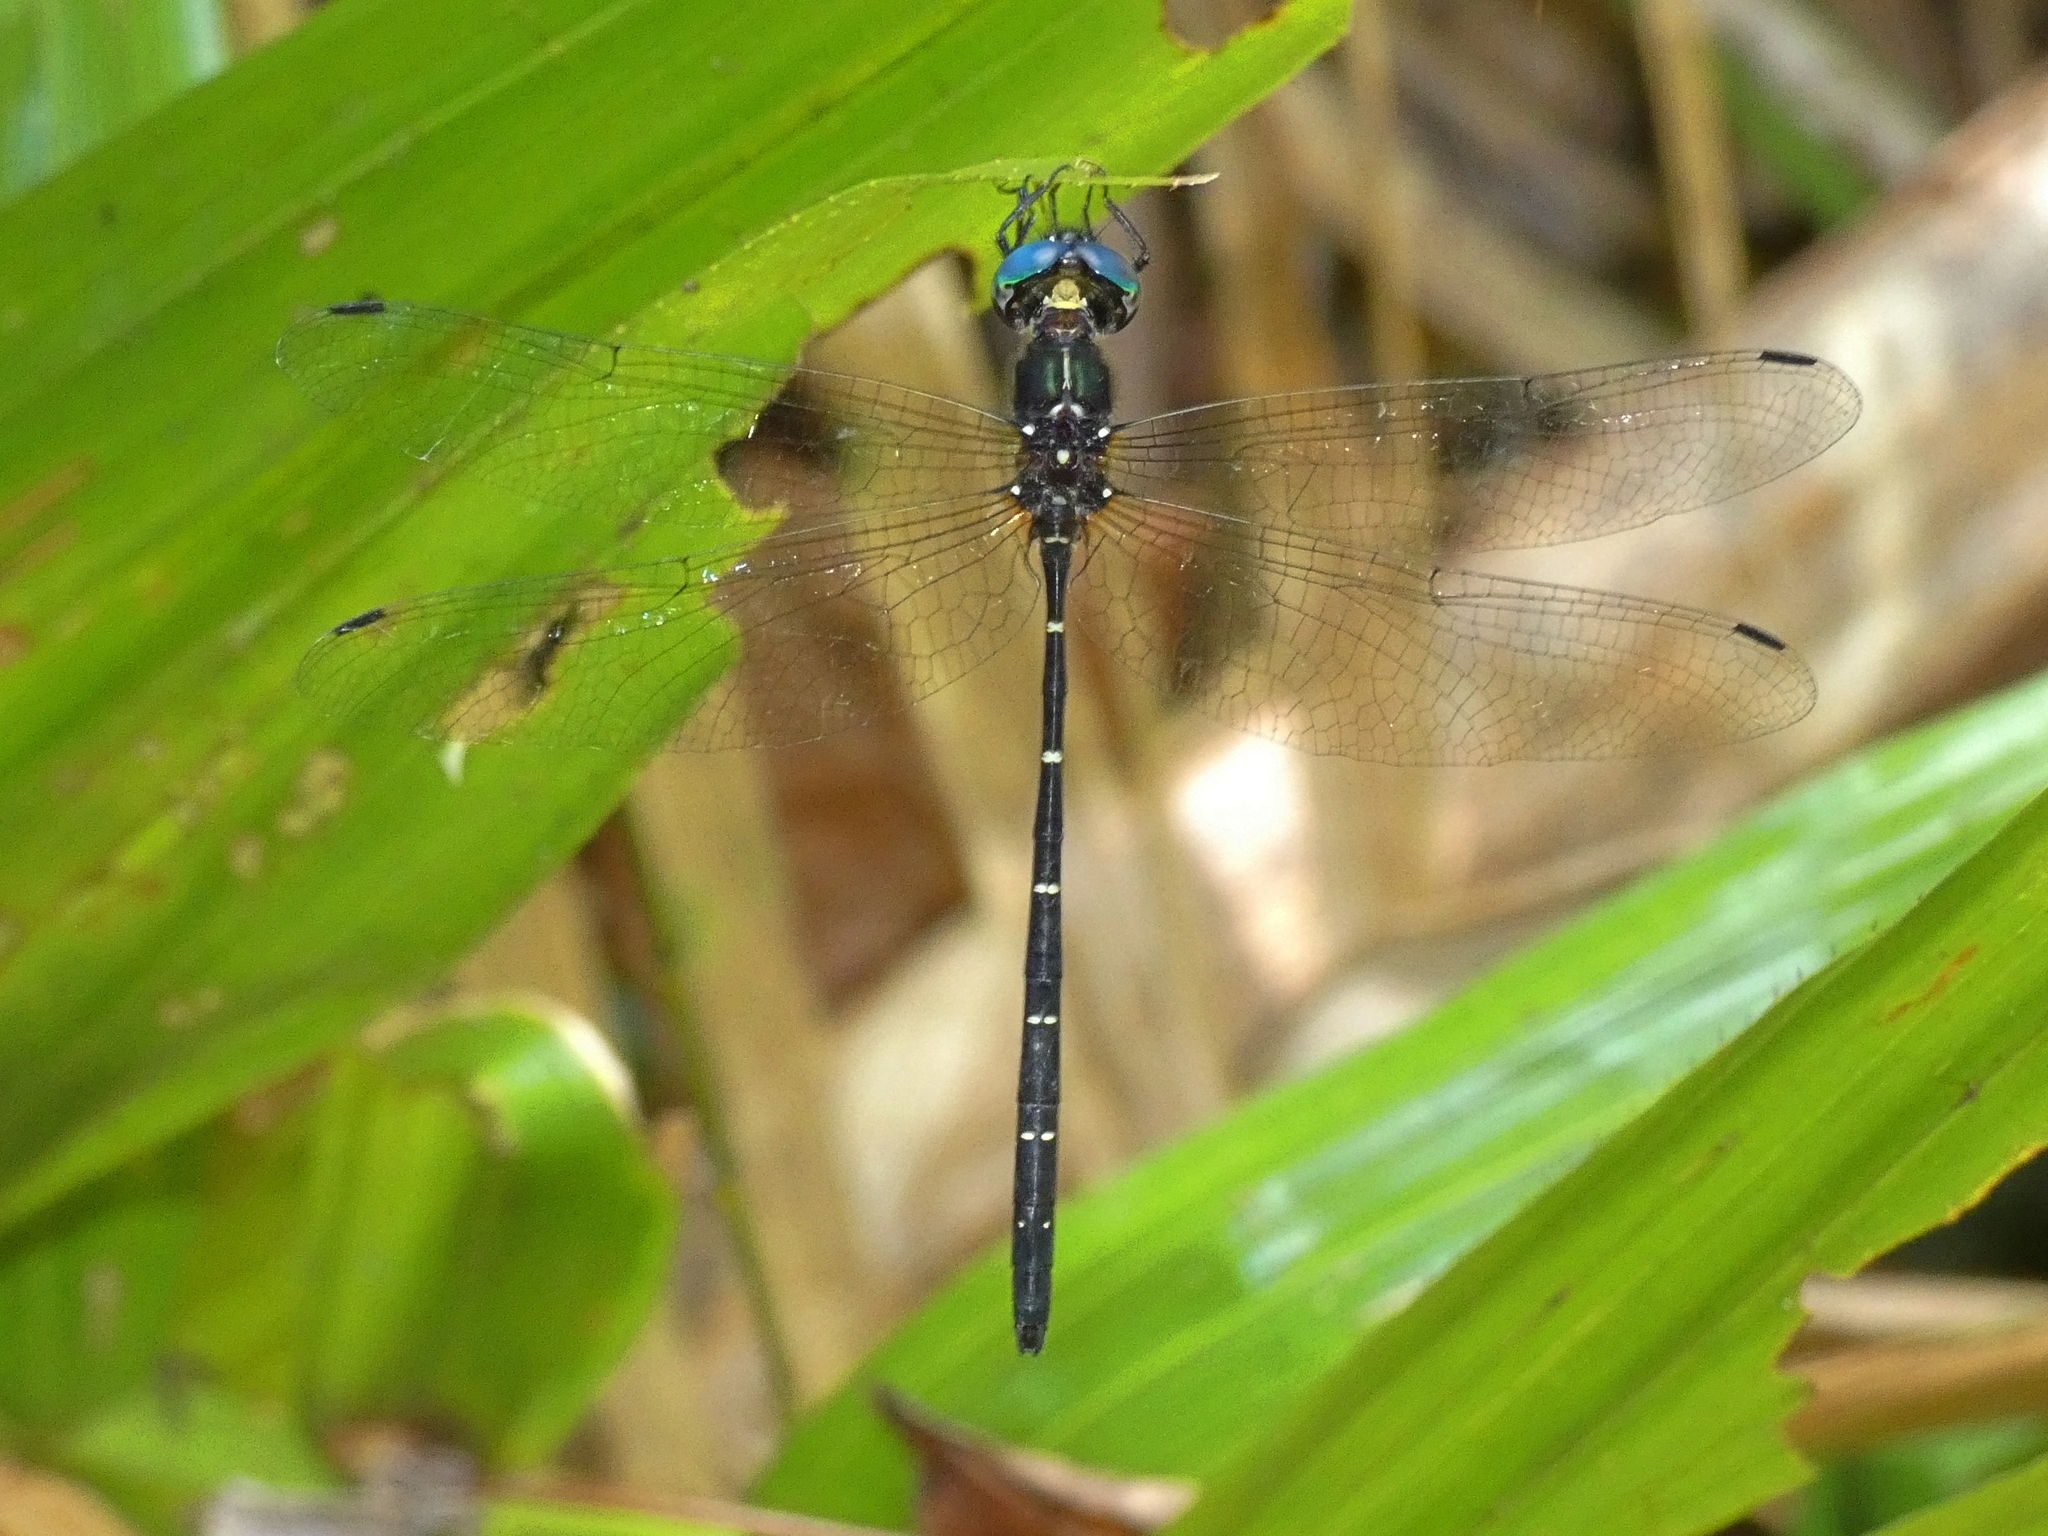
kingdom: Animalia
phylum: Arthropoda
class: Insecta
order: Odonata
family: Synthemistidae
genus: Eusynthemis
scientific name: Eusynthemis nigra
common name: Black tigertail
